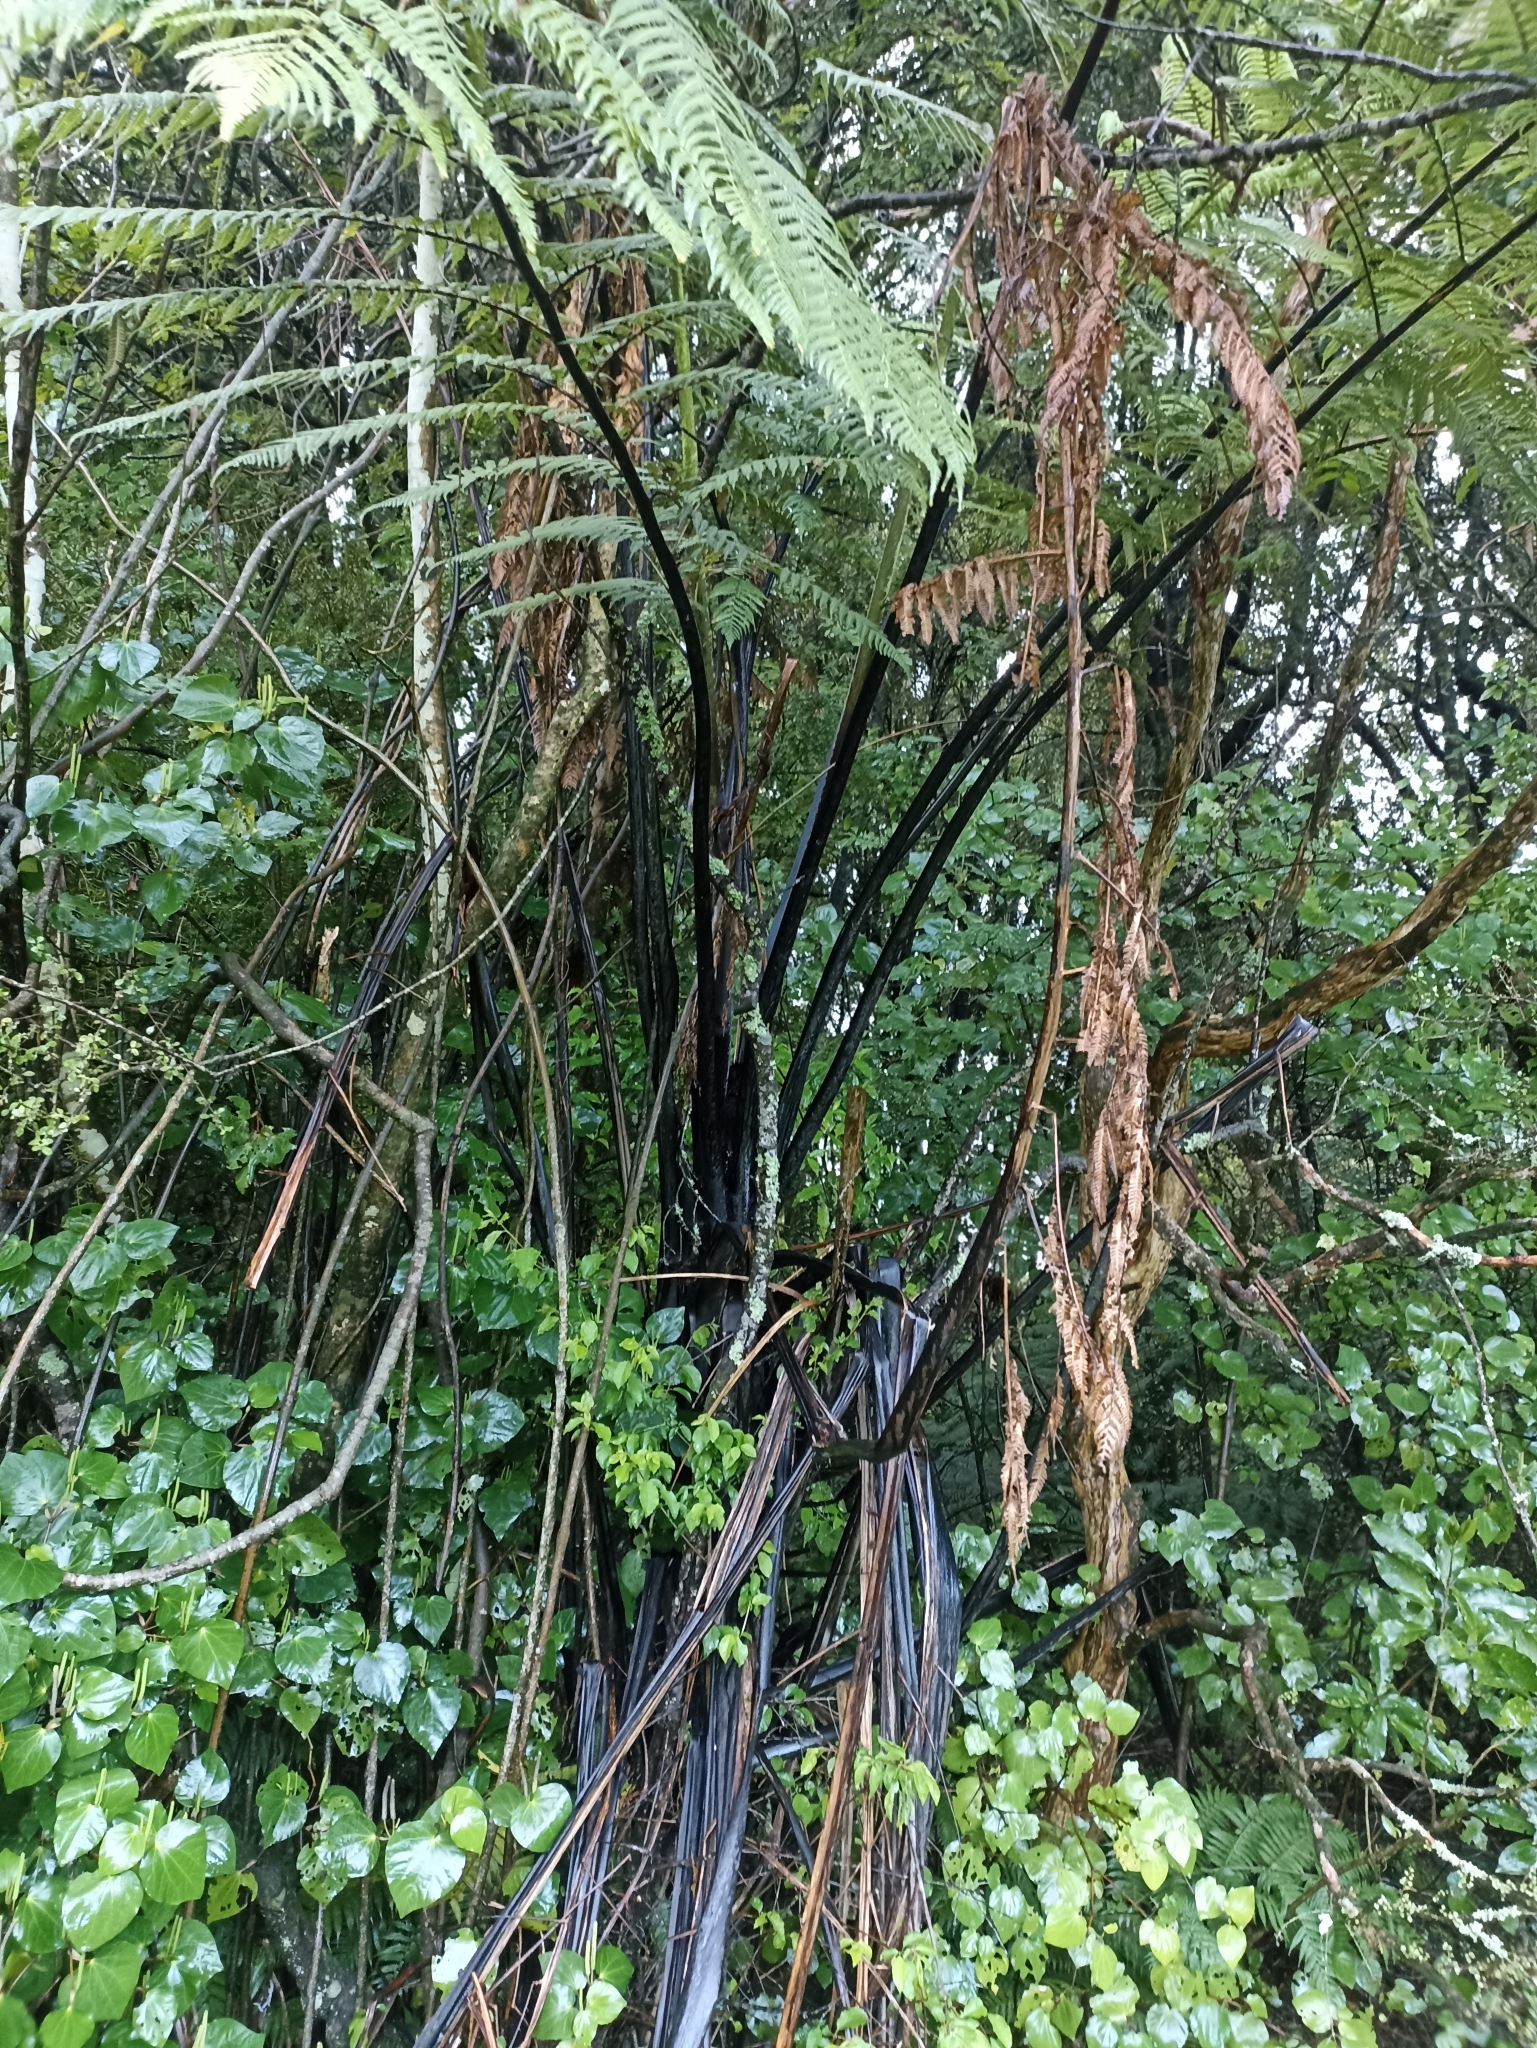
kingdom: Plantae
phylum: Tracheophyta
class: Polypodiopsida
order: Cyatheales
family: Cyatheaceae
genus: Sphaeropteris
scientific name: Sphaeropteris medullaris
